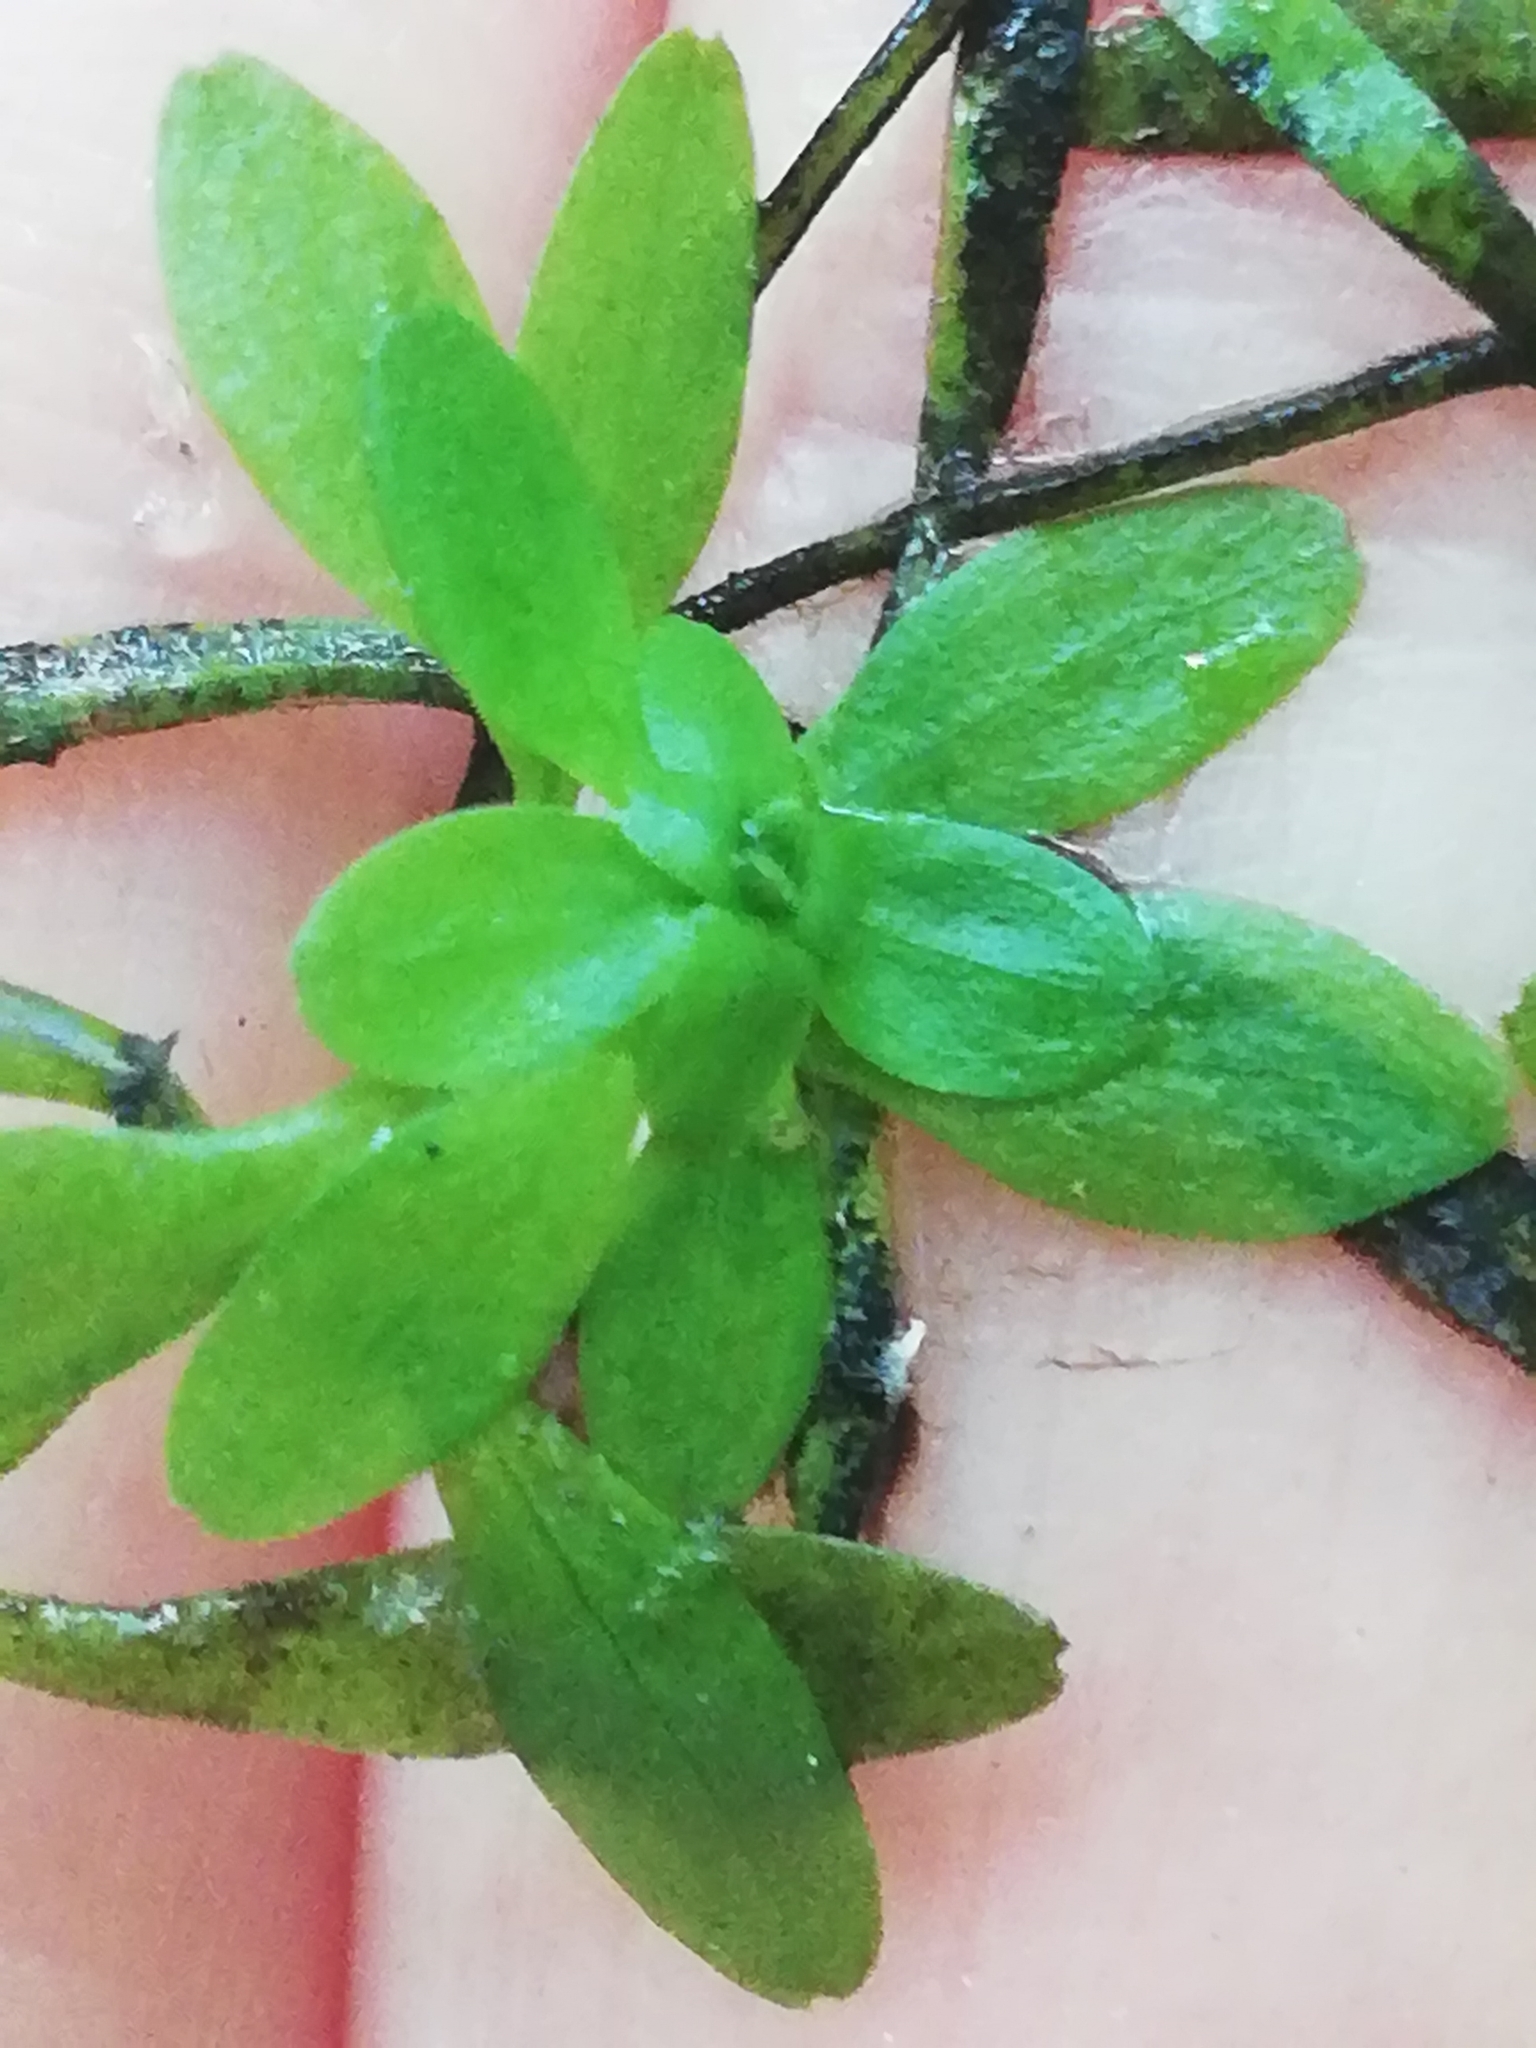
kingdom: Plantae
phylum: Tracheophyta
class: Magnoliopsida
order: Lamiales
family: Plantaginaceae
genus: Callitriche
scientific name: Callitriche
